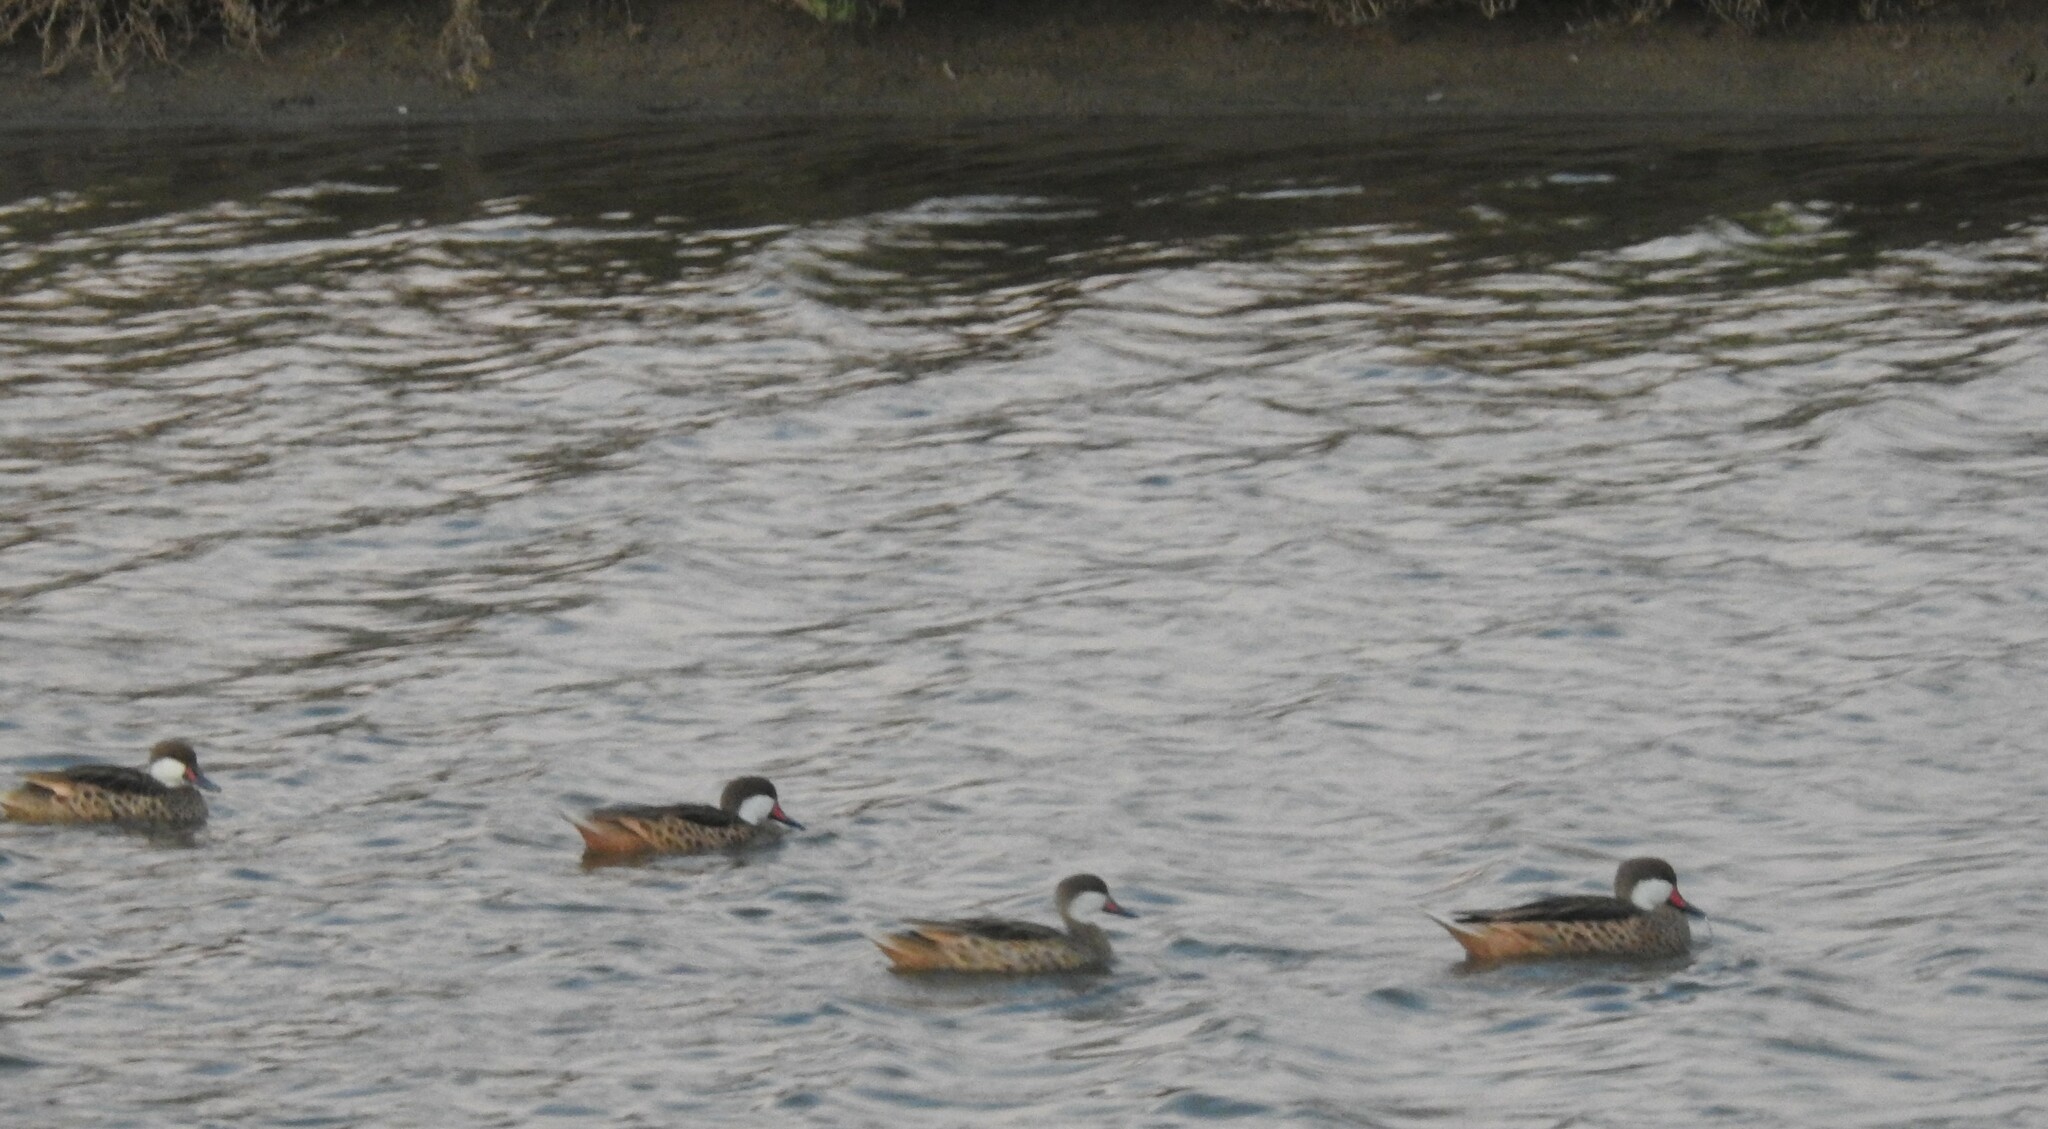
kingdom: Animalia
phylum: Chordata
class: Aves
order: Anseriformes
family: Anatidae
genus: Anas
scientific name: Anas bahamensis
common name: White-cheeked pintail
